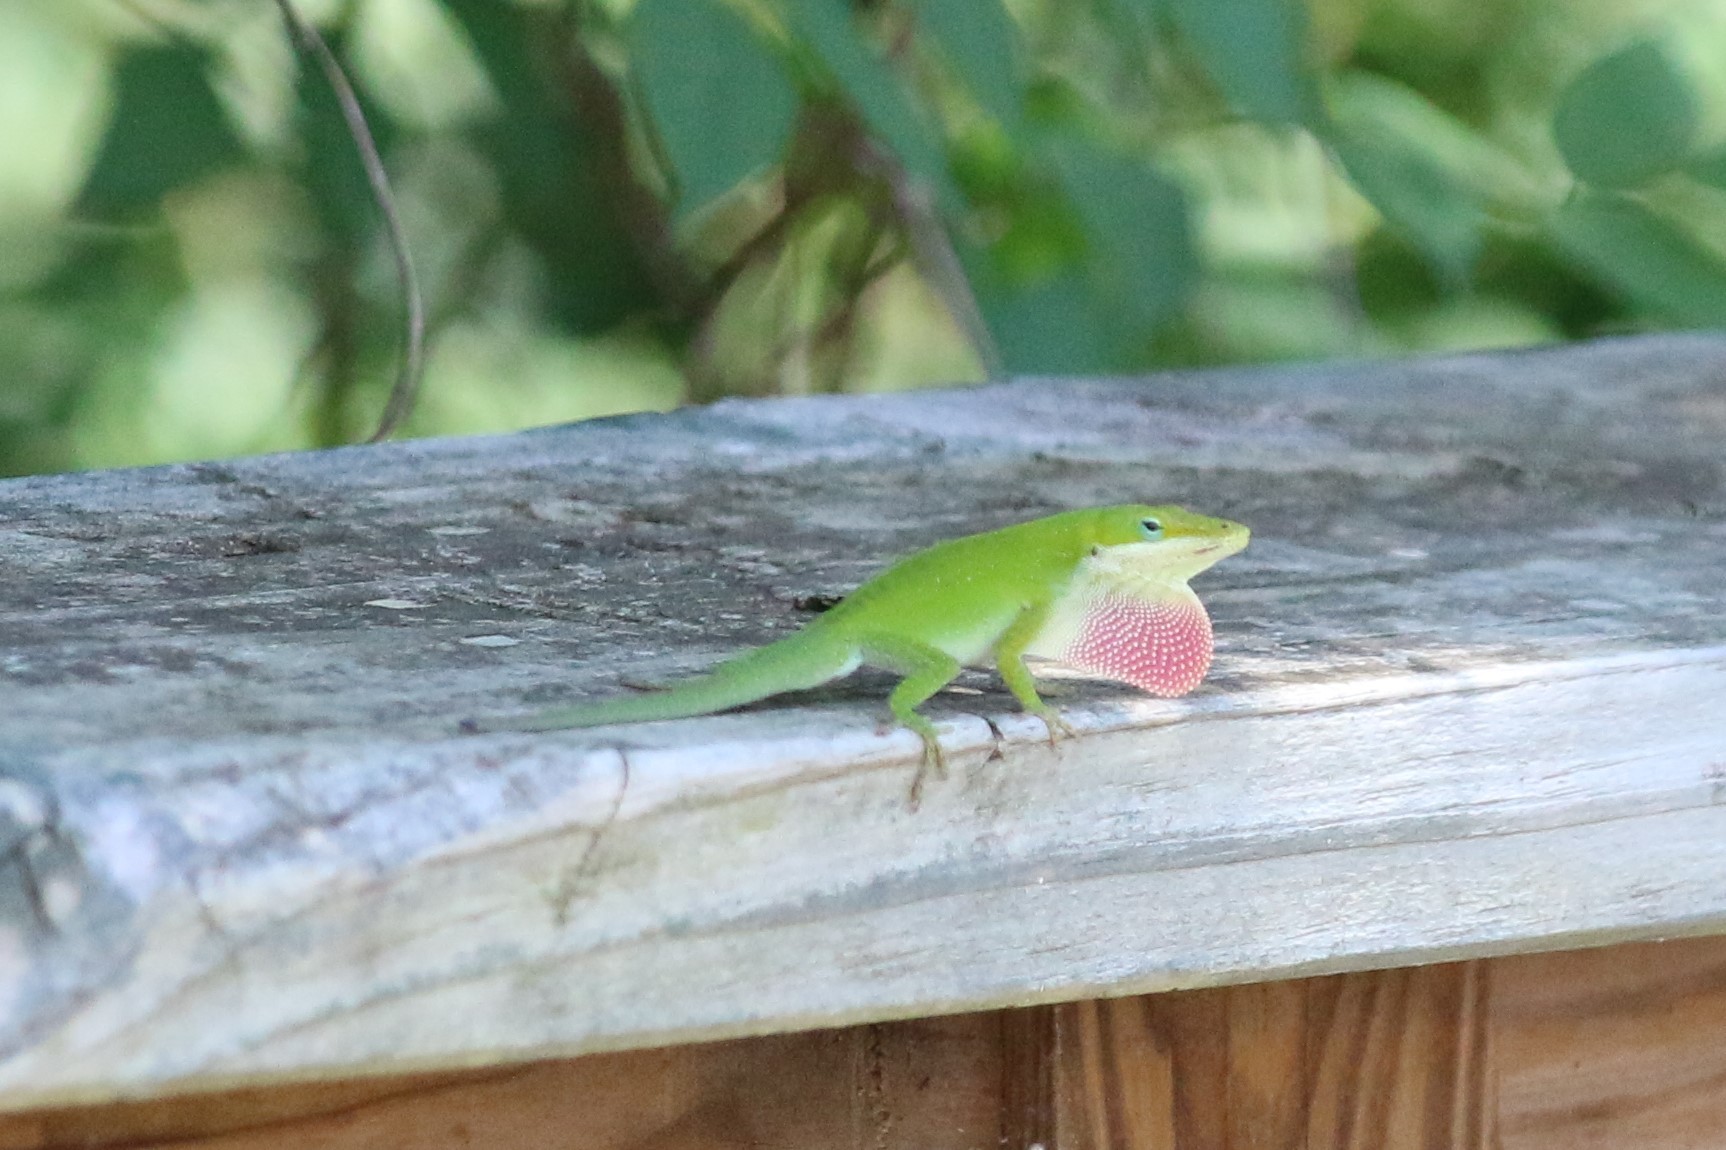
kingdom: Animalia
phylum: Chordata
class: Squamata
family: Dactyloidae
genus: Anolis
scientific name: Anolis carolinensis
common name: Green anole
